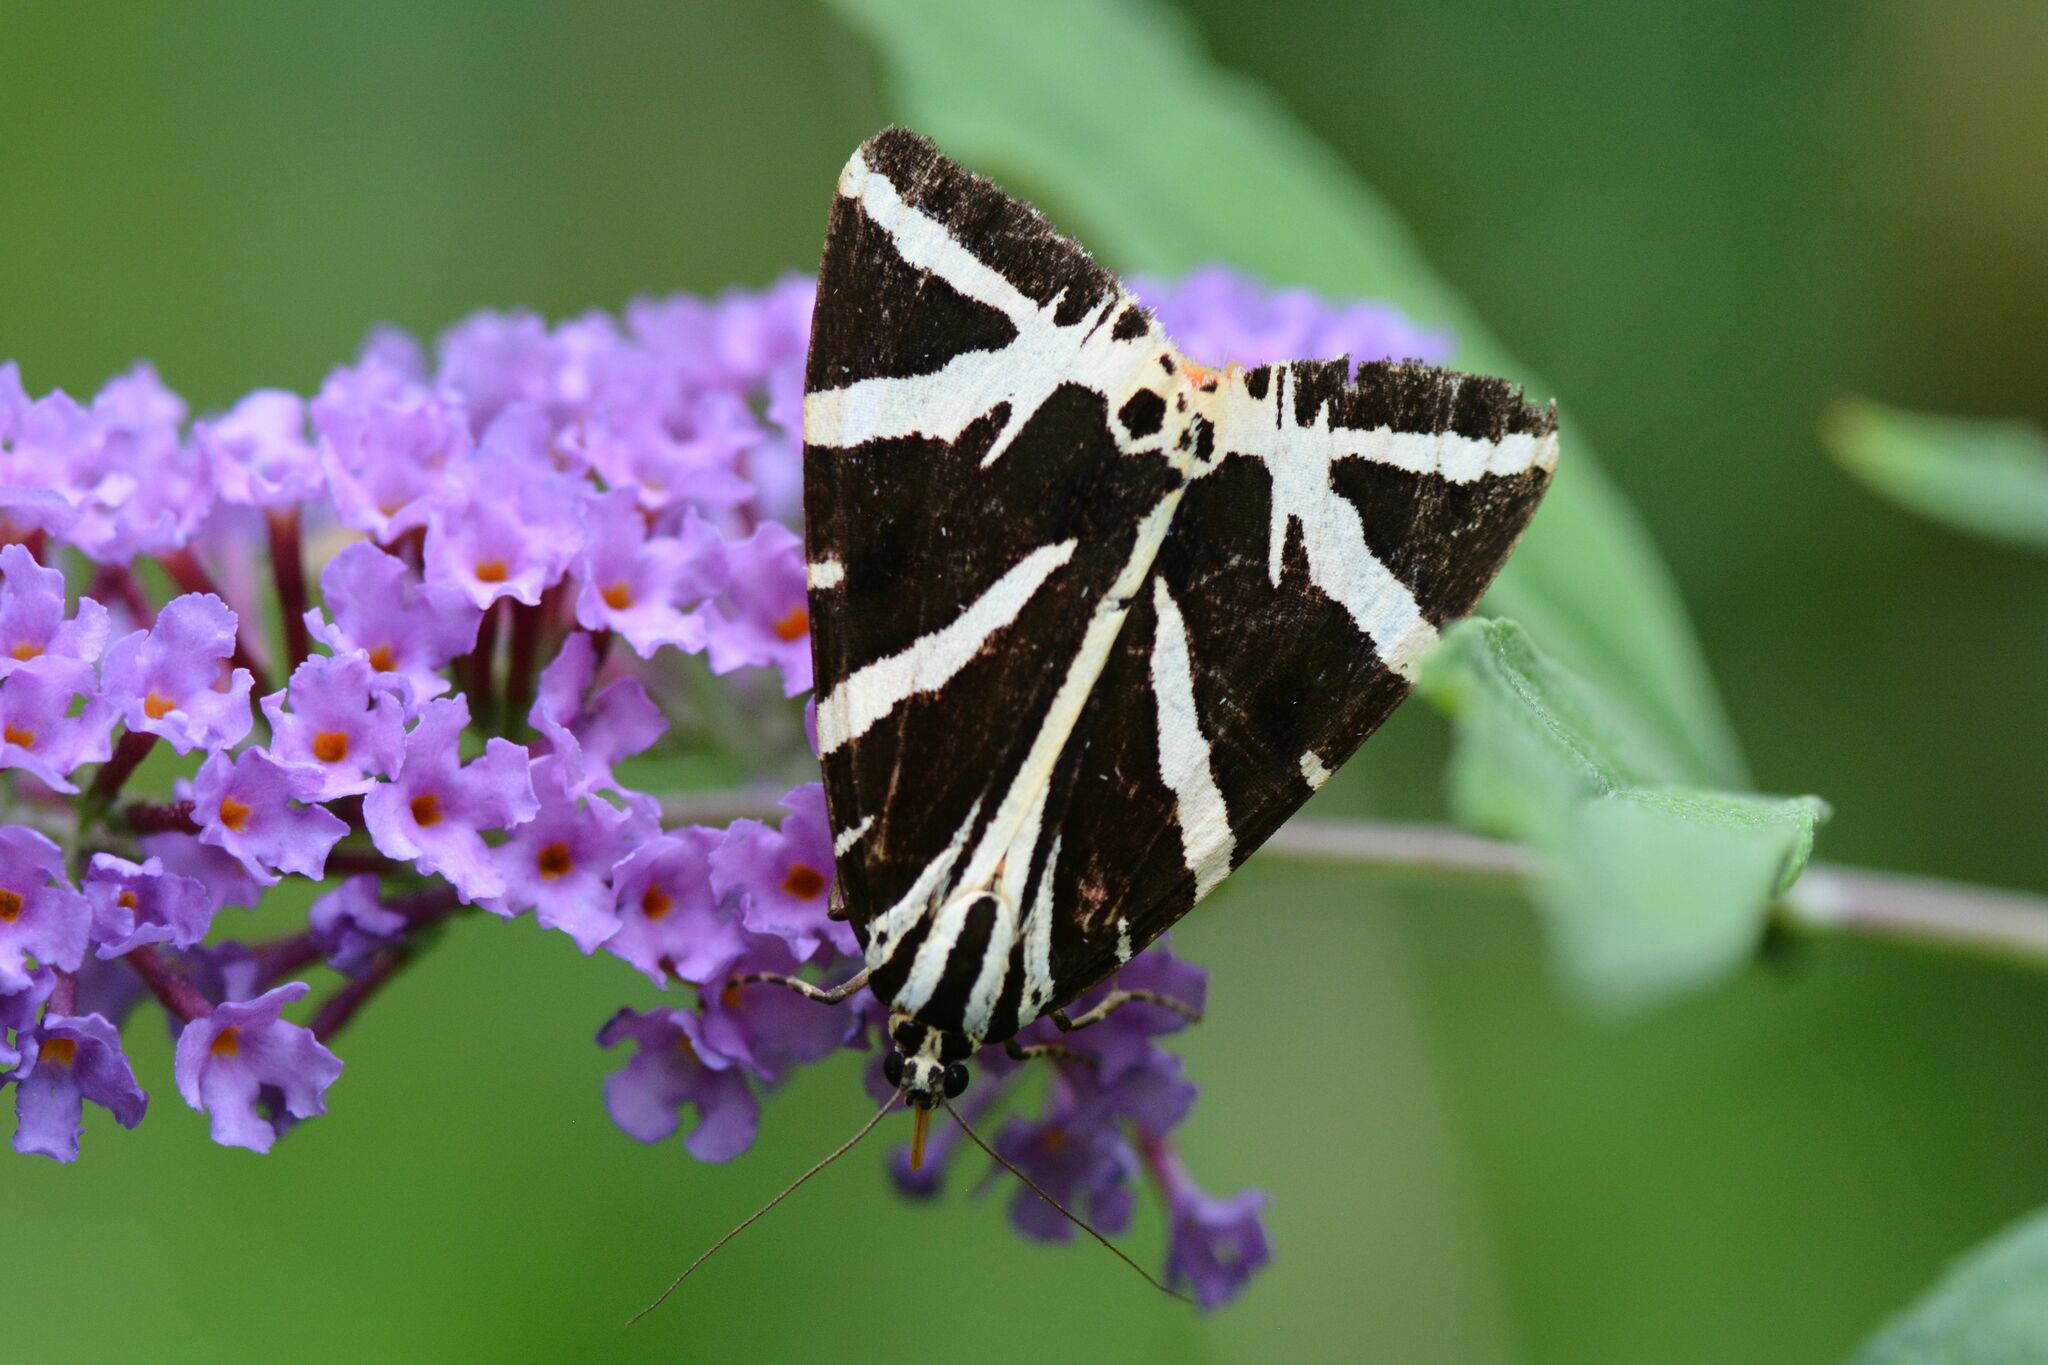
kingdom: Animalia
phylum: Arthropoda
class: Insecta
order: Lepidoptera
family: Erebidae
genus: Euplagia
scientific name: Euplagia quadripunctaria
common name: Jersey tiger
